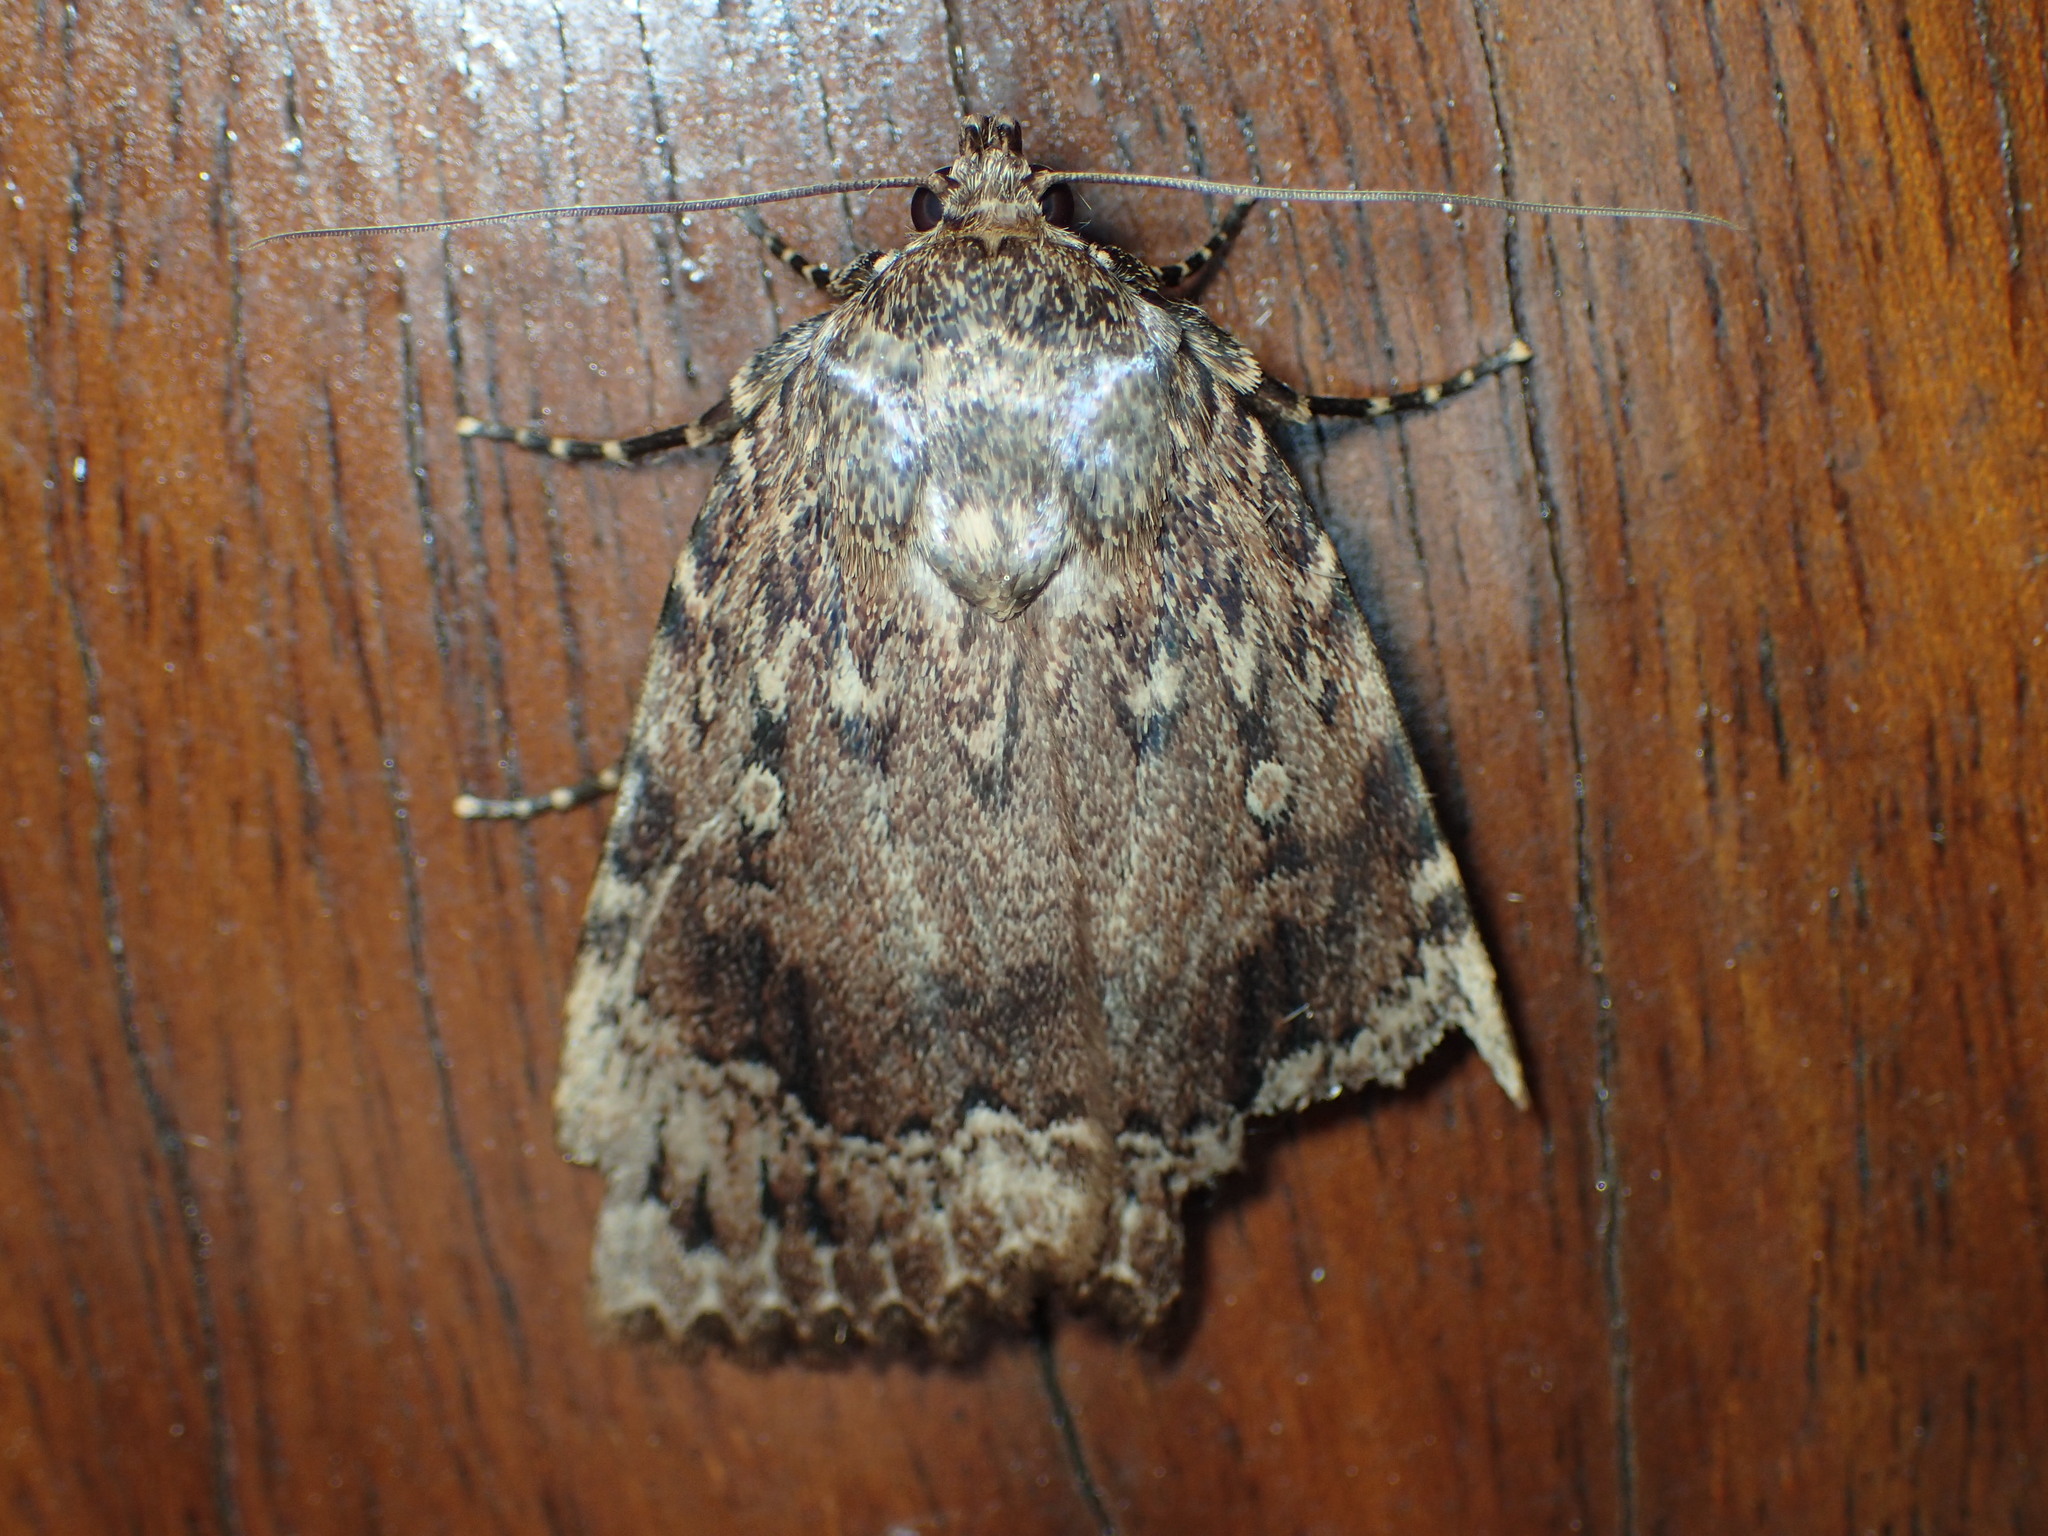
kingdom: Animalia
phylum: Arthropoda
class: Insecta
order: Lepidoptera
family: Noctuidae
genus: Amphipyra
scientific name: Amphipyra pyramidoides
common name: American copper underwing
